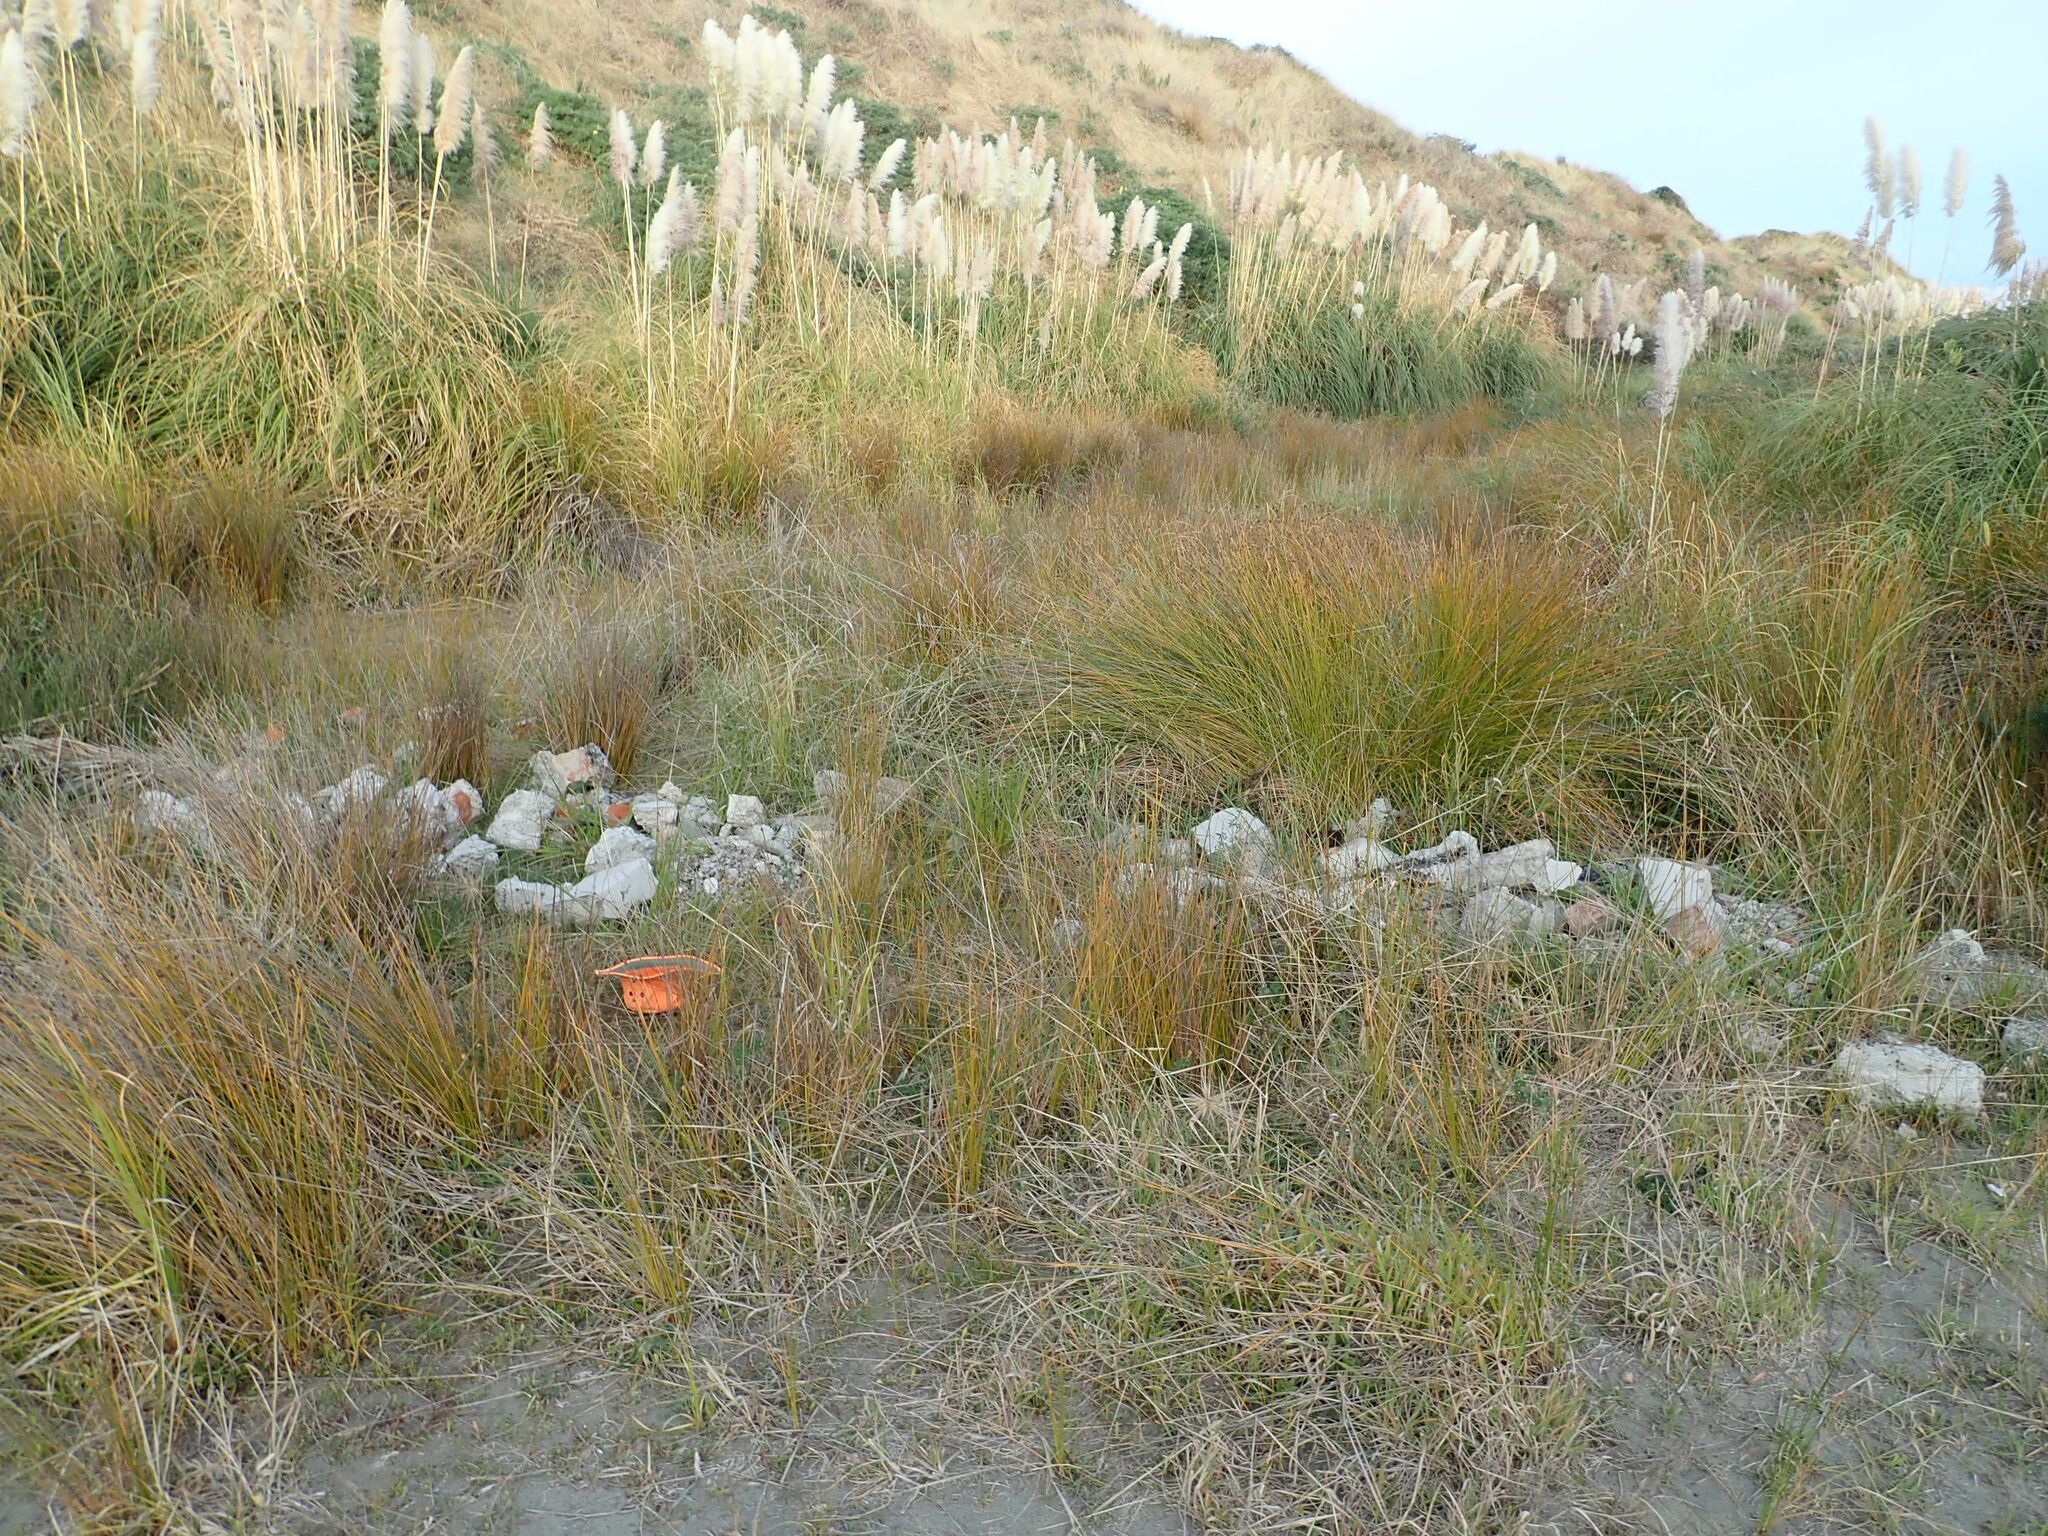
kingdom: Plantae
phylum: Tracheophyta
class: Magnoliopsida
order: Asterales
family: Goodeniaceae
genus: Goodenia
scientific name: Goodenia heenanii
